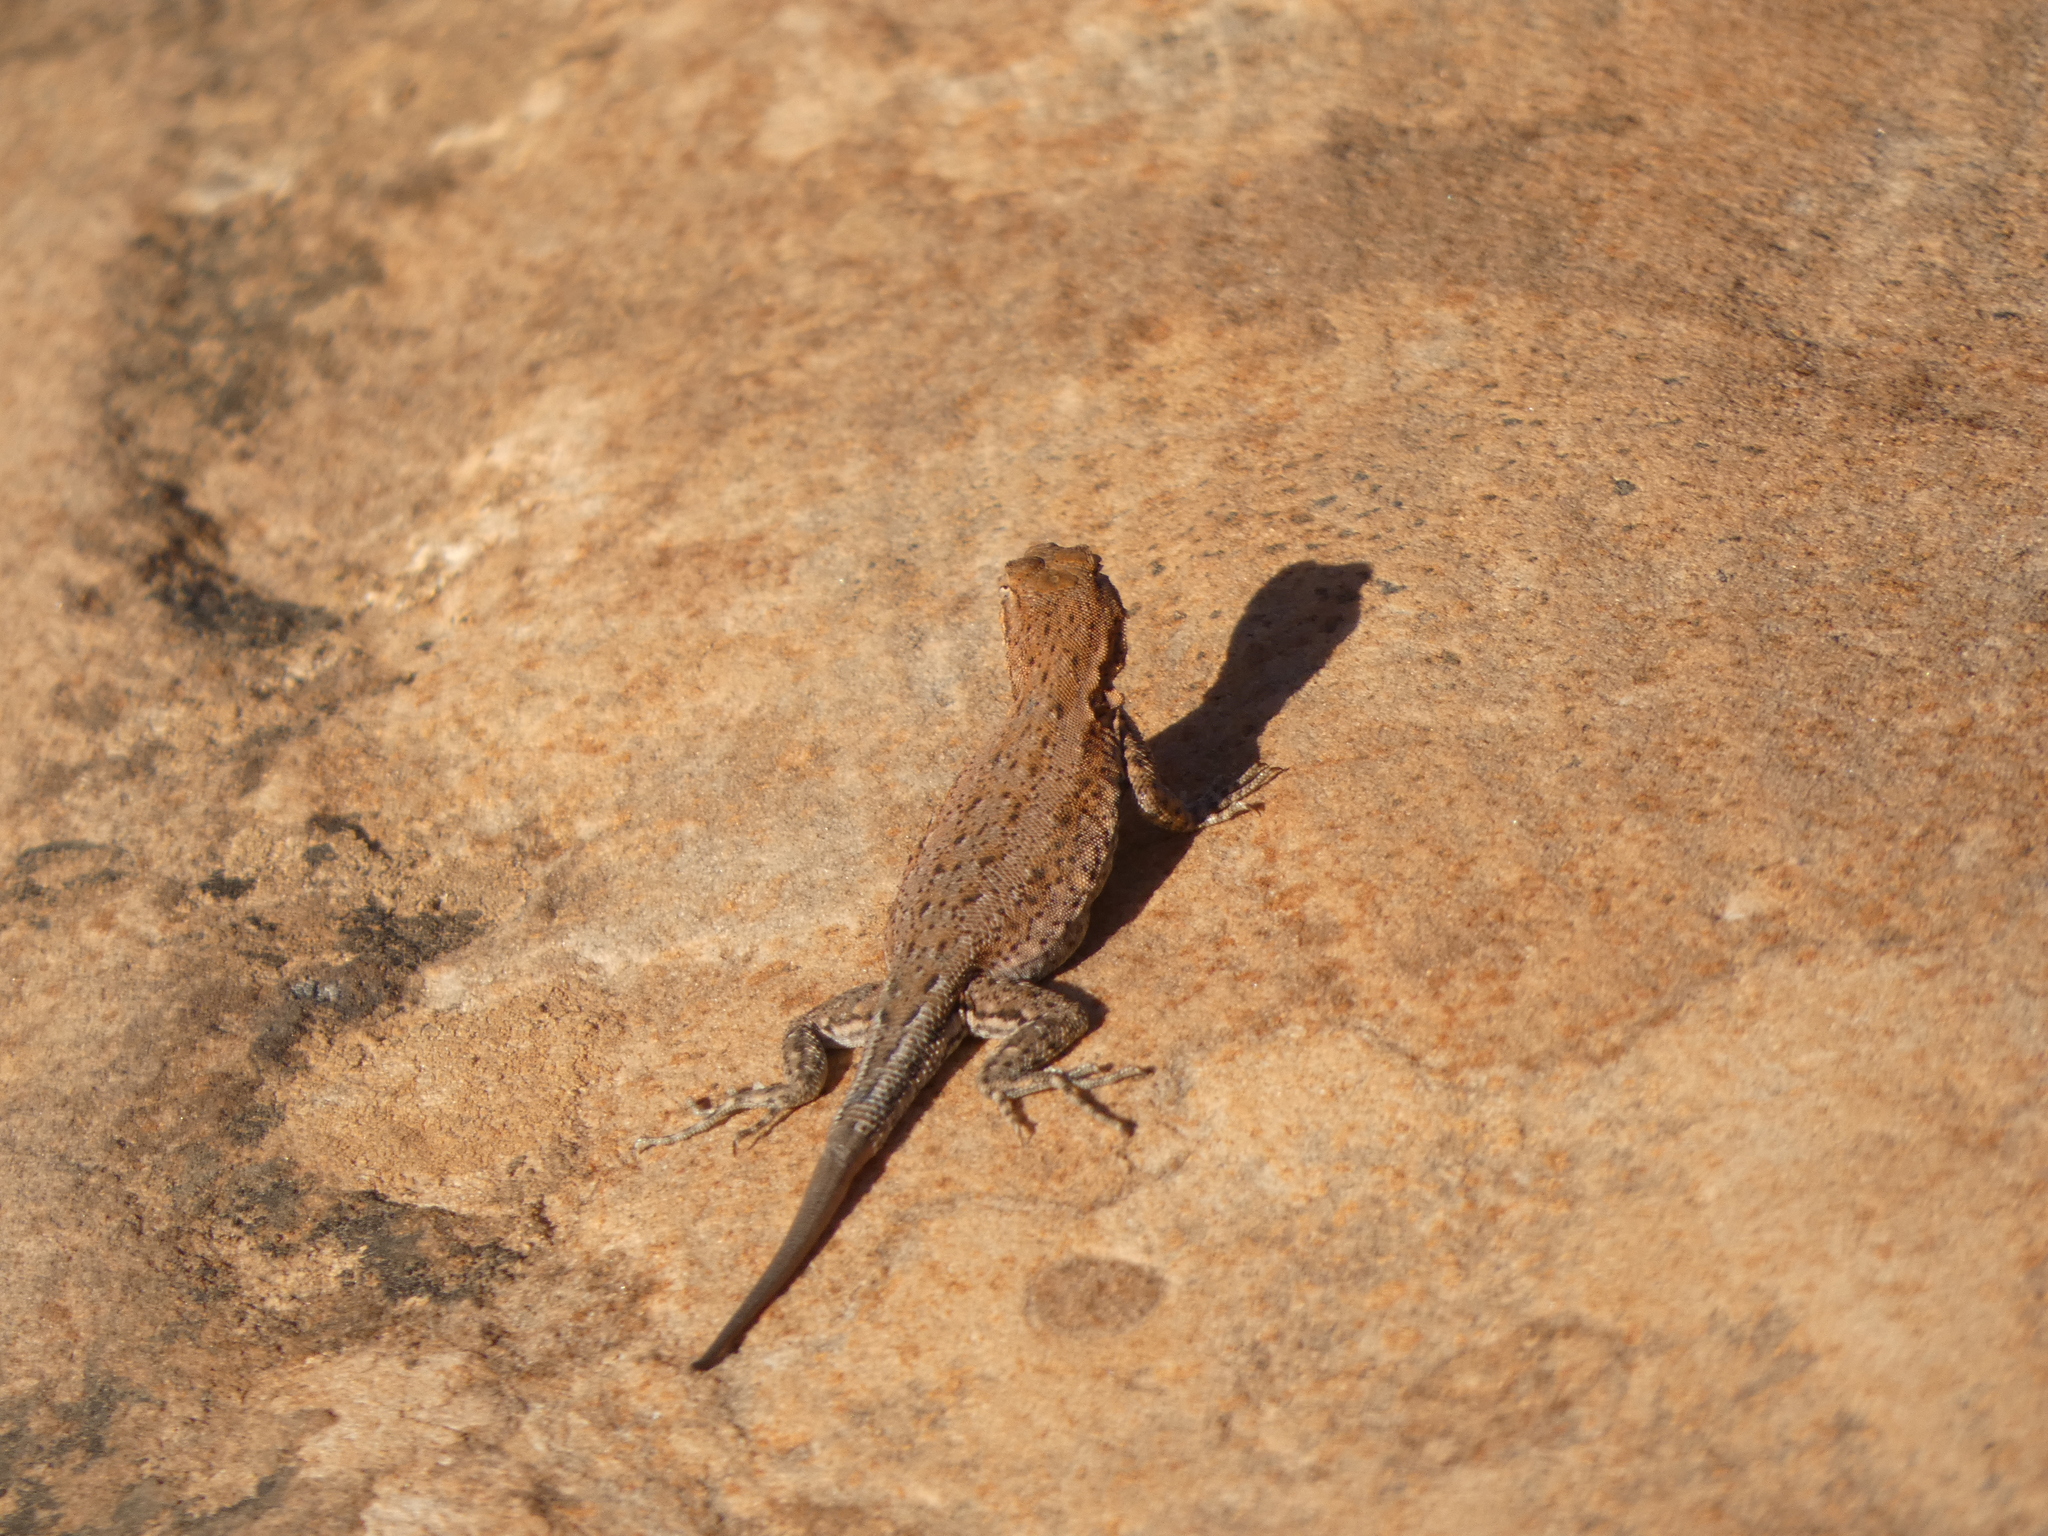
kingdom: Animalia
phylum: Chordata
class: Squamata
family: Phrynosomatidae
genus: Uta
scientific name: Uta stansburiana
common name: Side-blotched lizard
